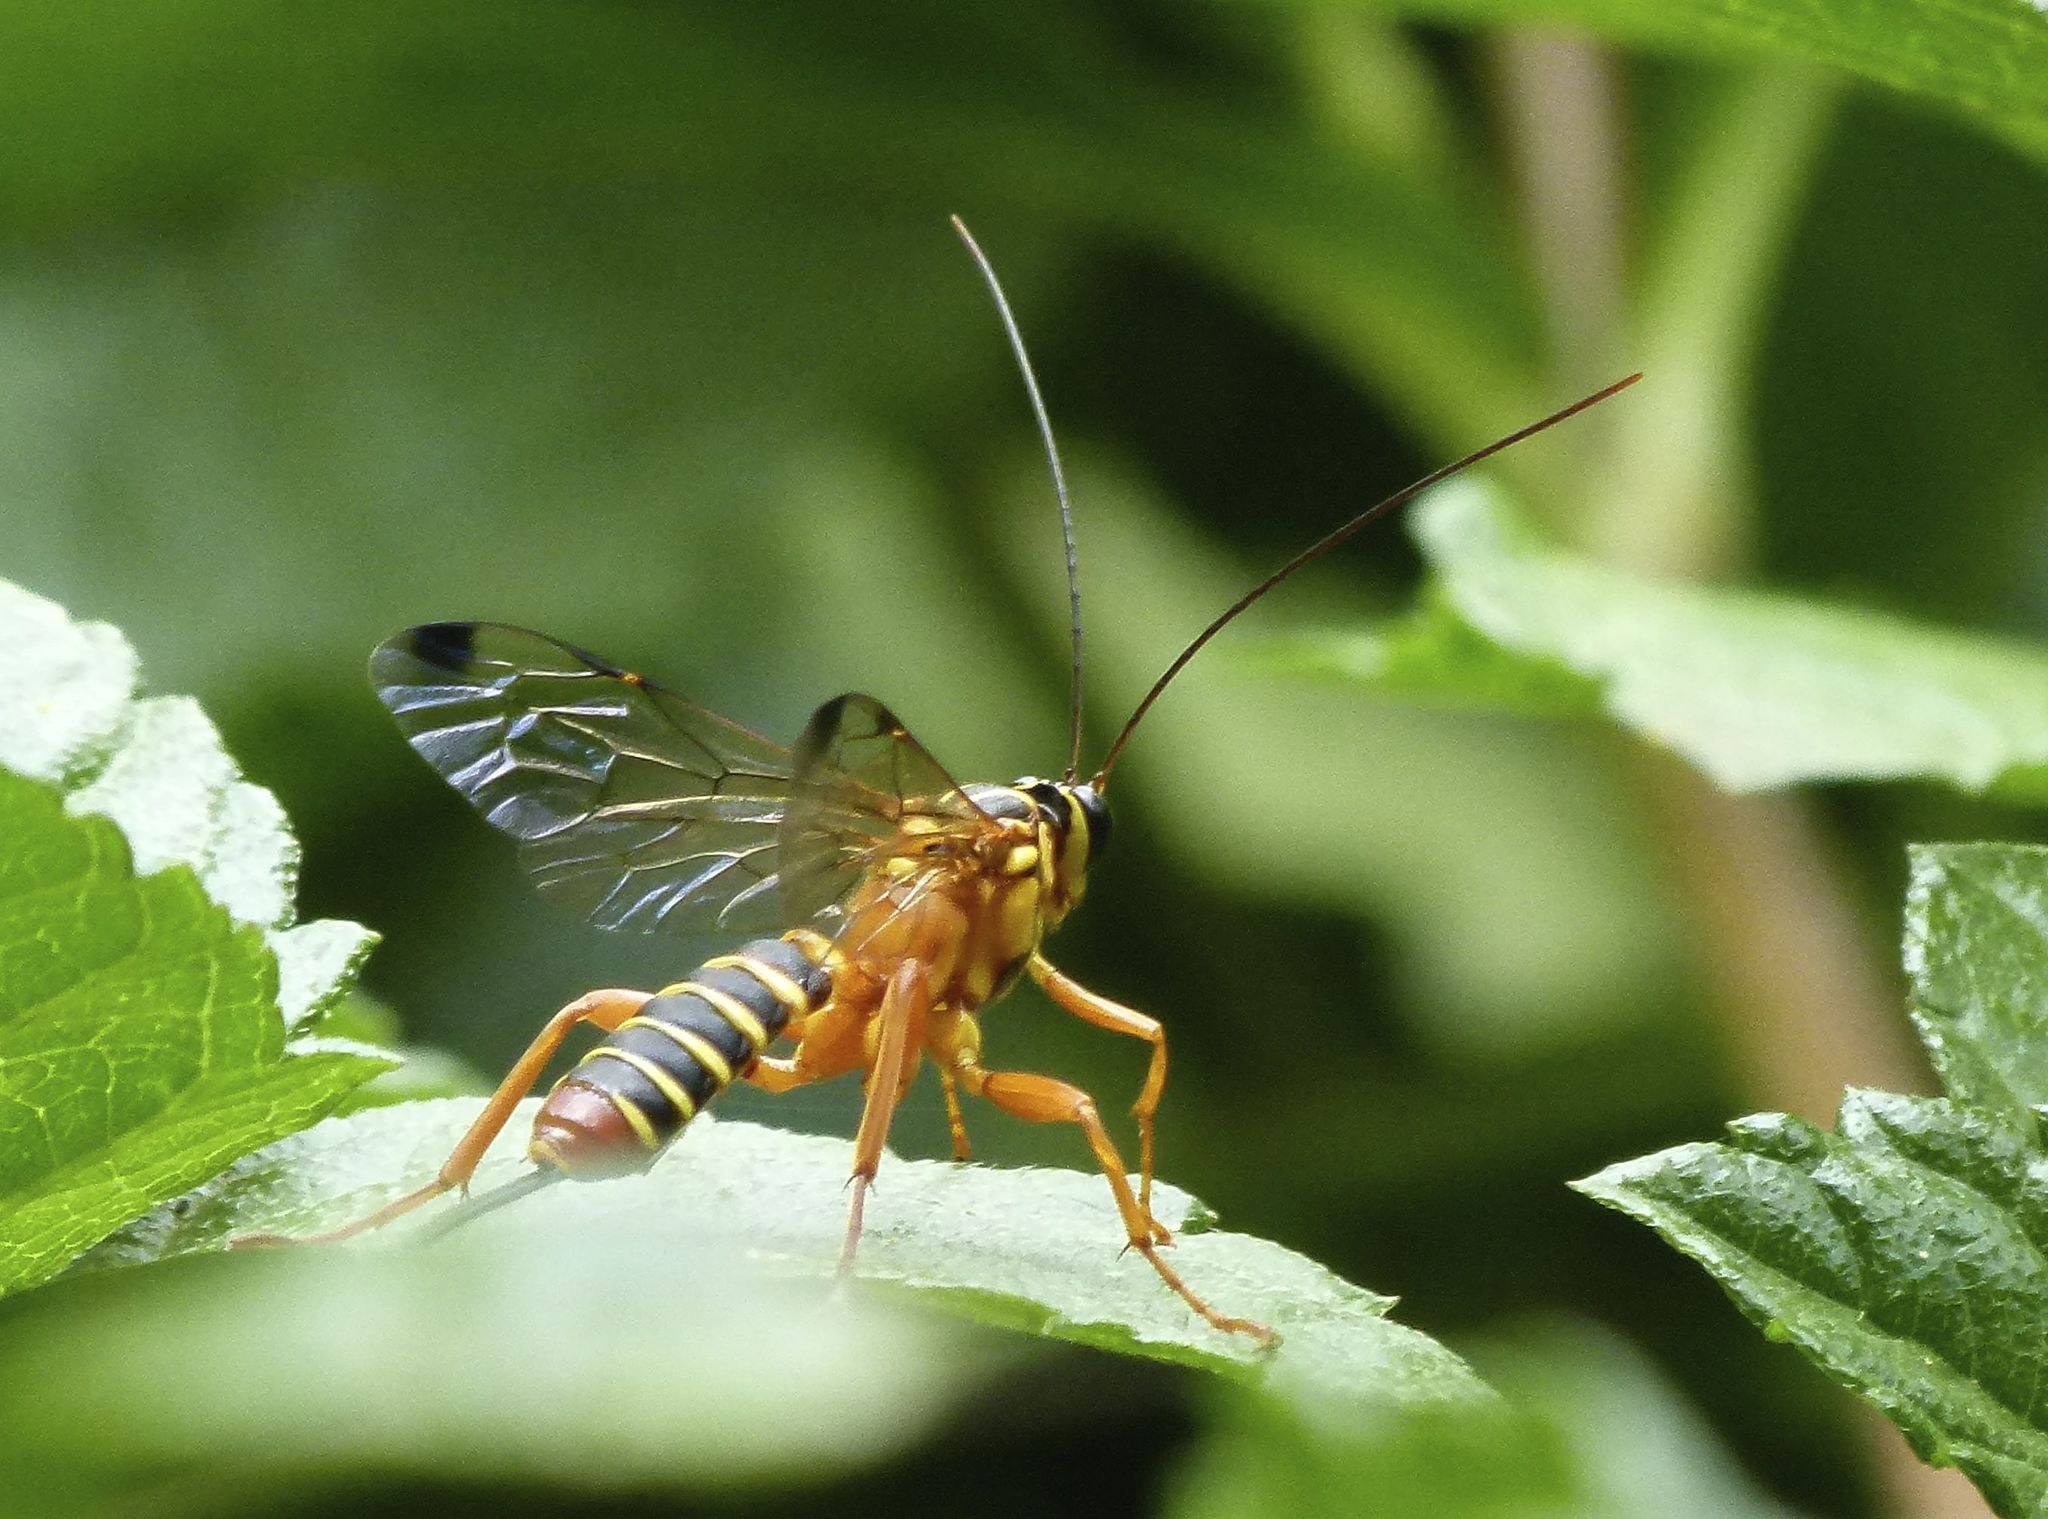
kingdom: Animalia
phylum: Arthropoda
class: Insecta
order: Hymenoptera
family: Ichneumonidae
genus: Echthromorpha
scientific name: Echthromorpha agrestoria
